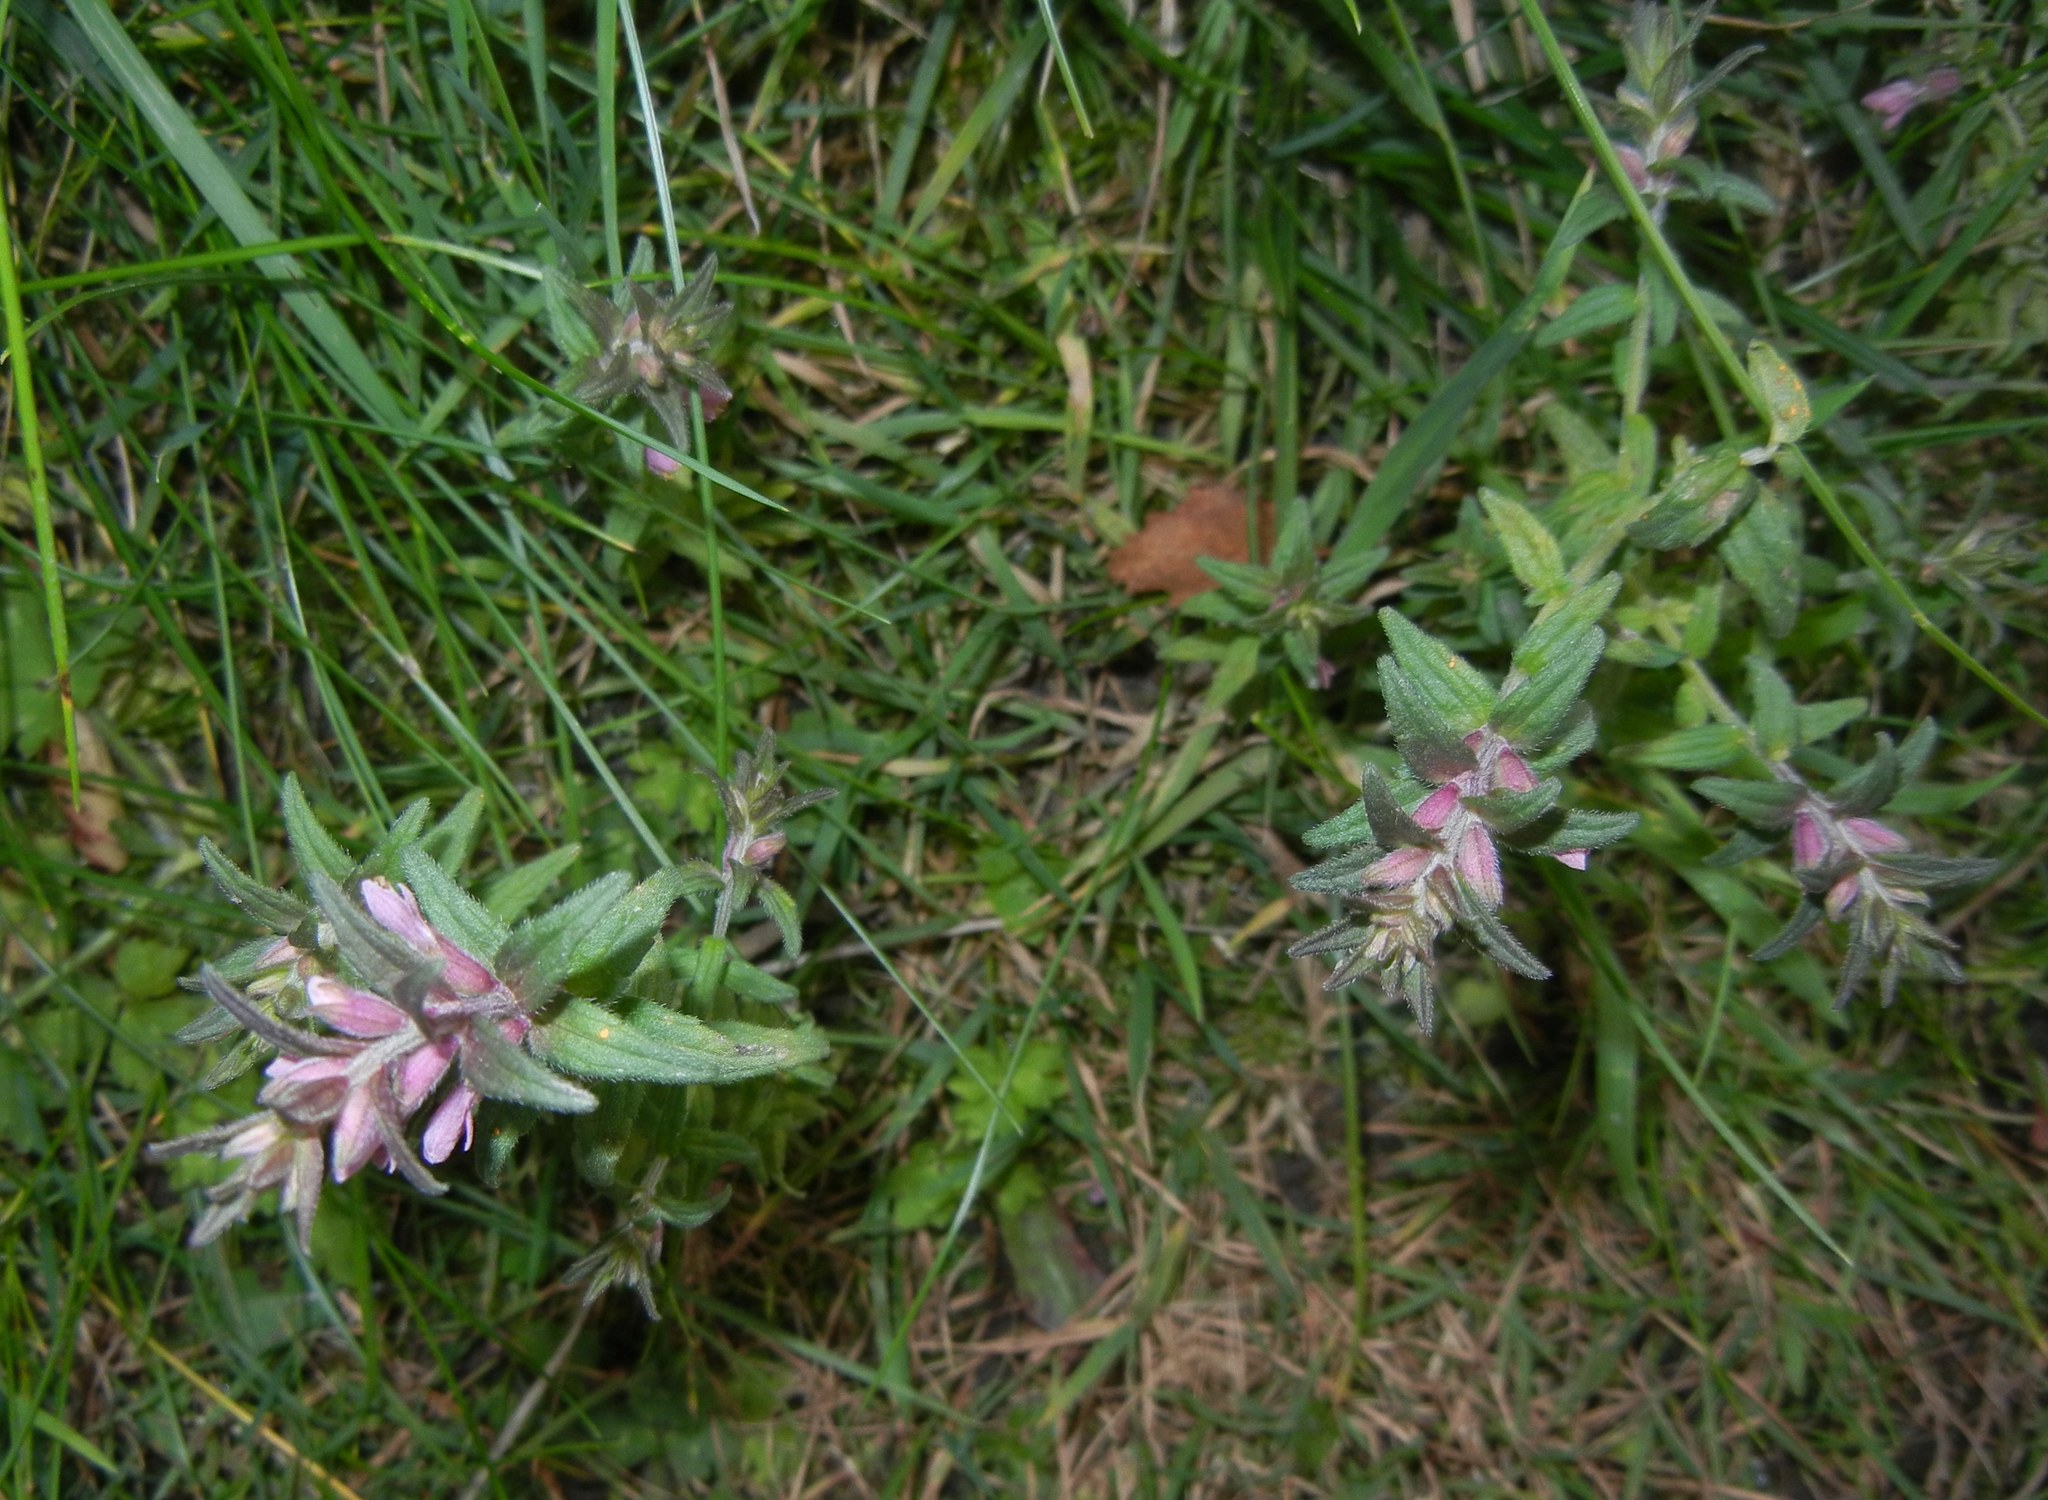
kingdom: Plantae
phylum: Tracheophyta
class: Magnoliopsida
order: Lamiales
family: Orobanchaceae
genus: Odontites
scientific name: Odontites vulgaris
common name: Broomrape
